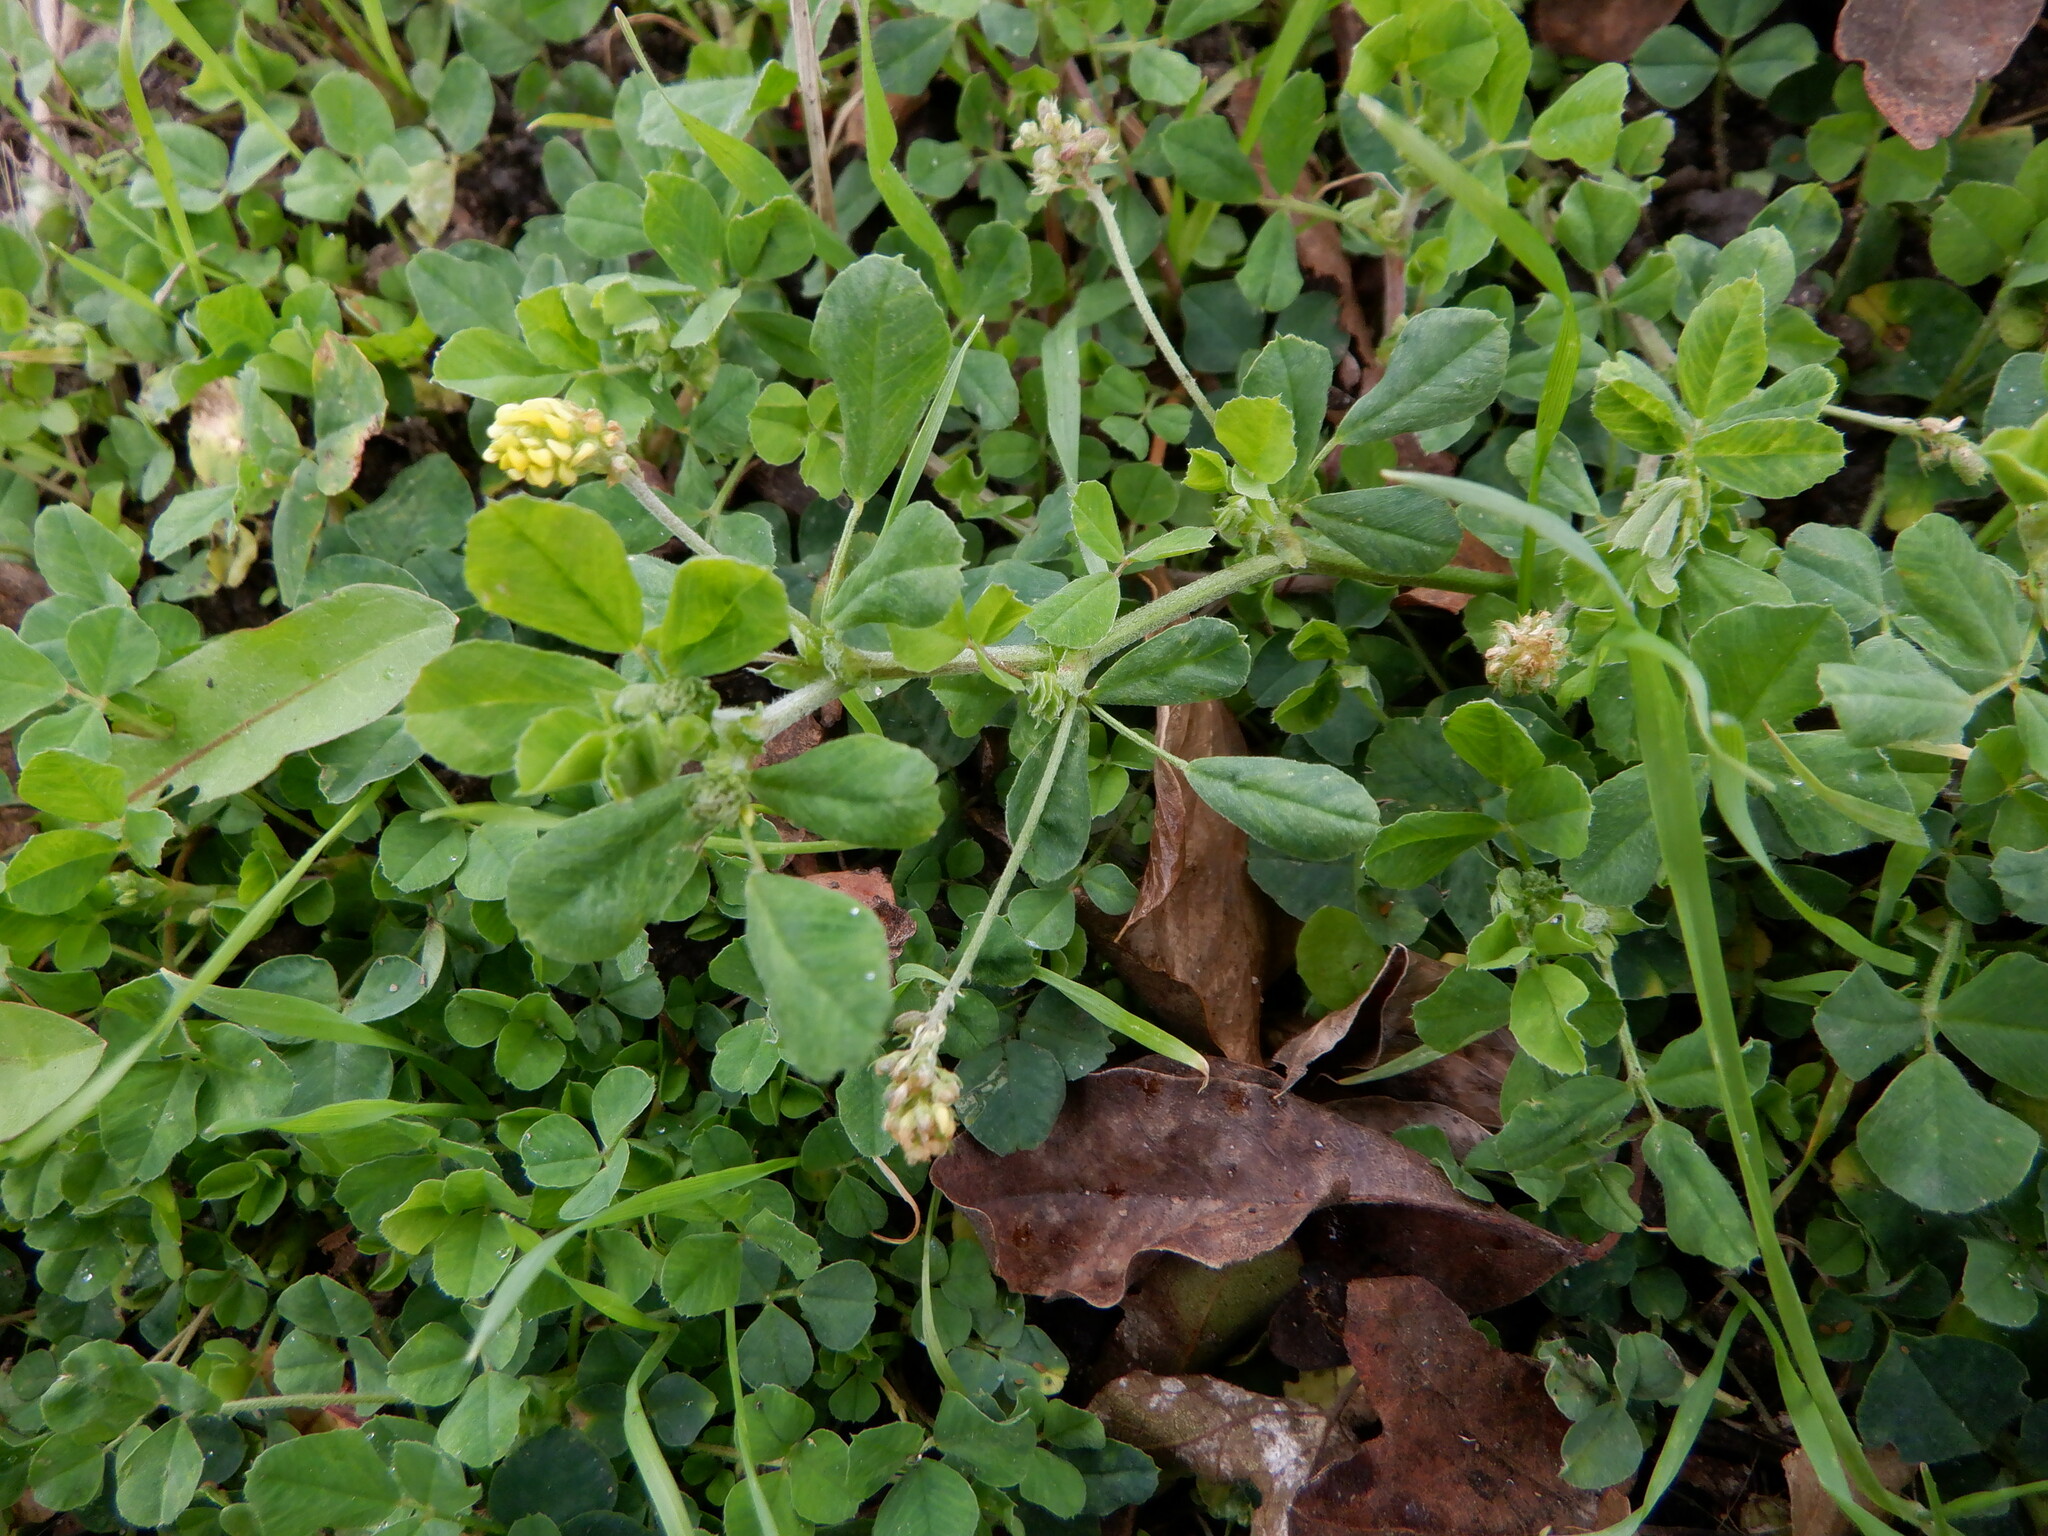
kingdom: Plantae
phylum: Tracheophyta
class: Magnoliopsida
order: Fabales
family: Fabaceae
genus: Medicago
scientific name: Medicago lupulina
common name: Black medick
